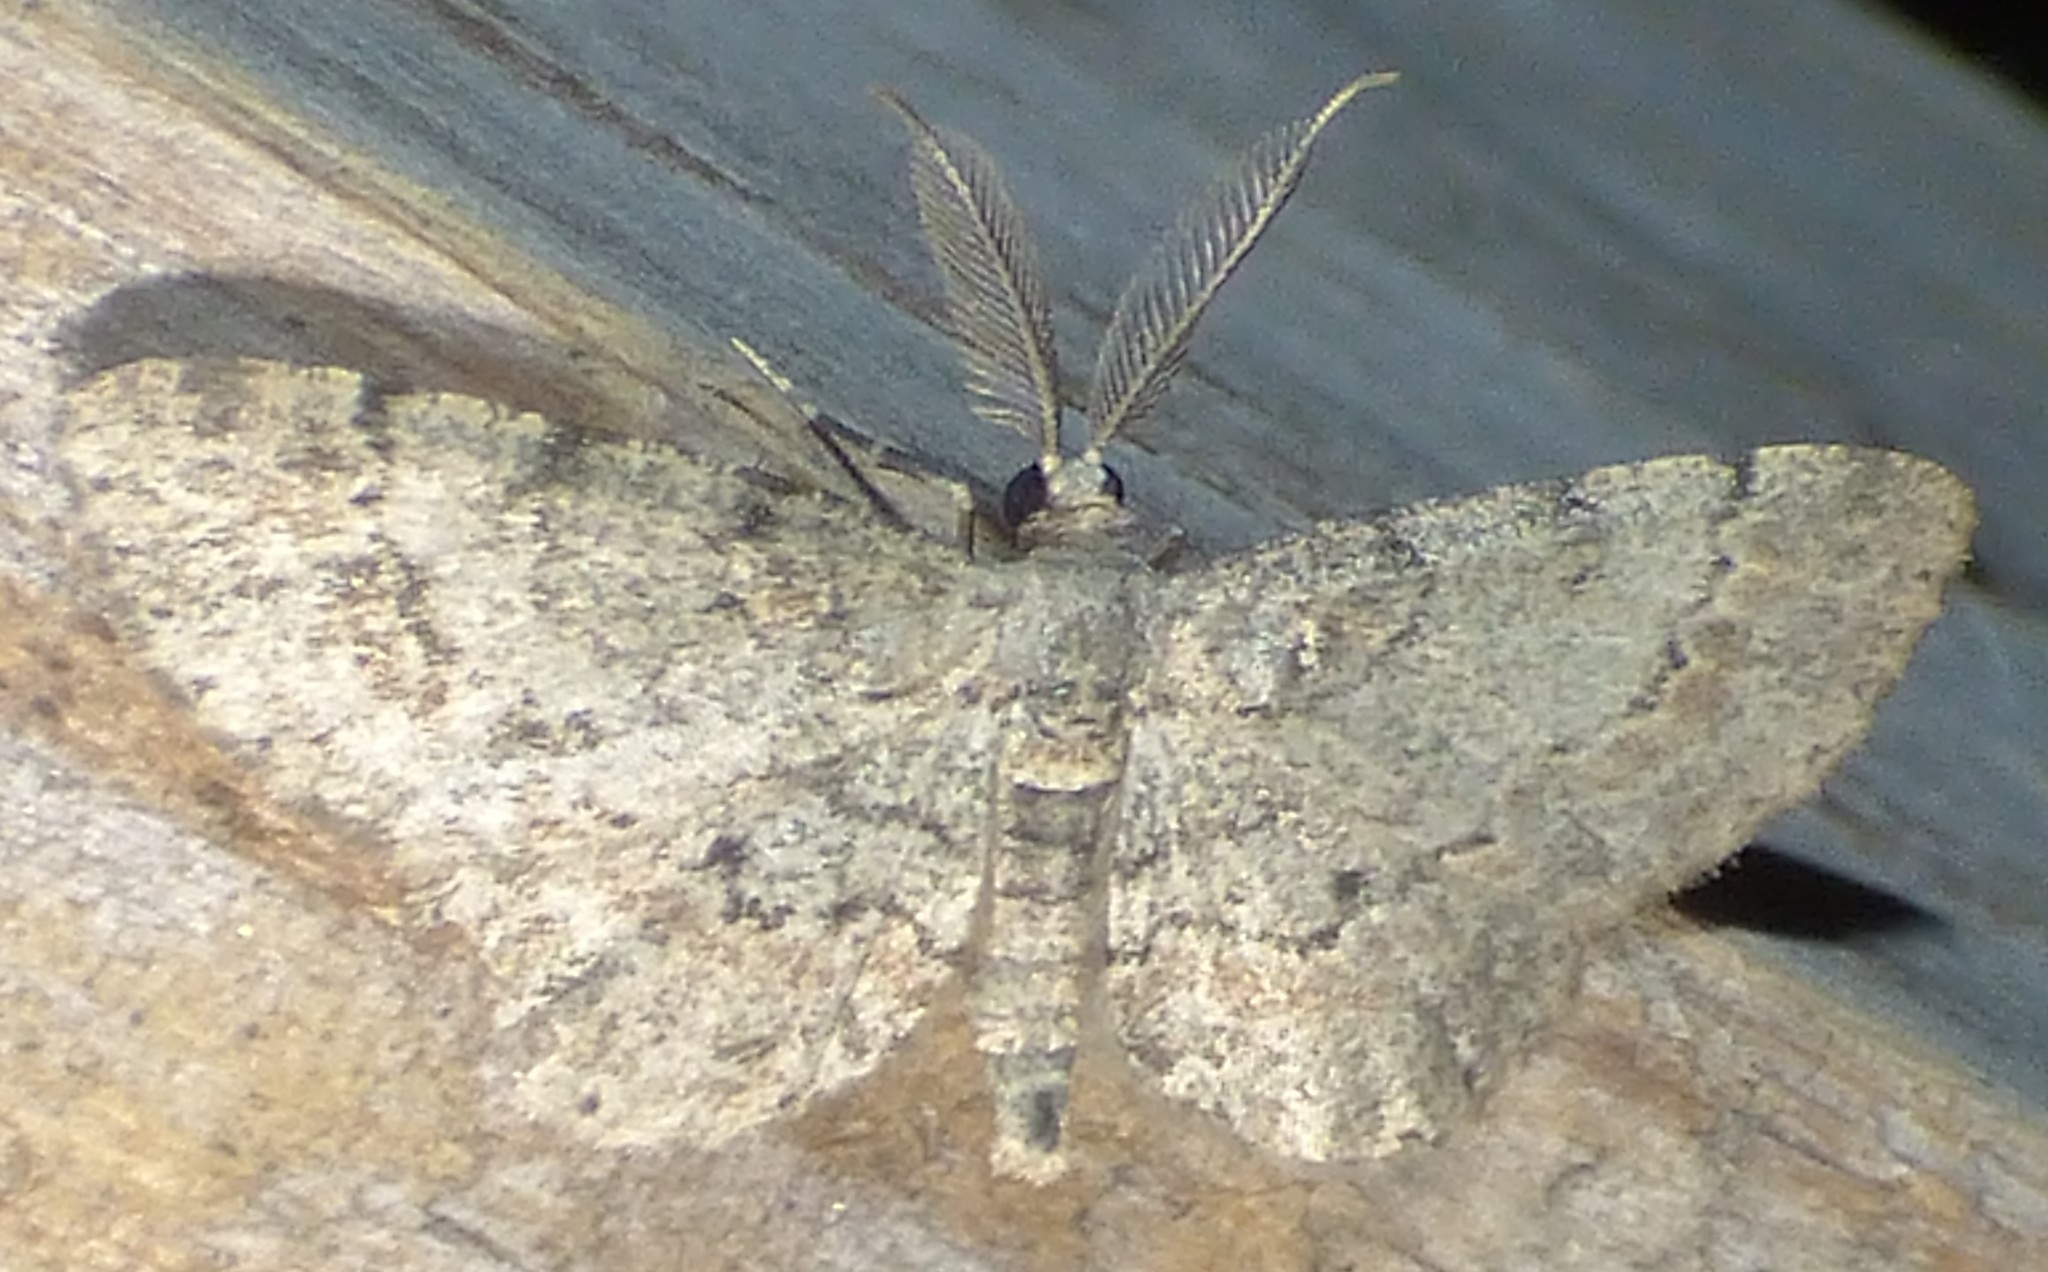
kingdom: Animalia
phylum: Arthropoda
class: Insecta
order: Lepidoptera
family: Geometridae
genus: Glenoides
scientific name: Glenoides texanaria
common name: Texas gray
